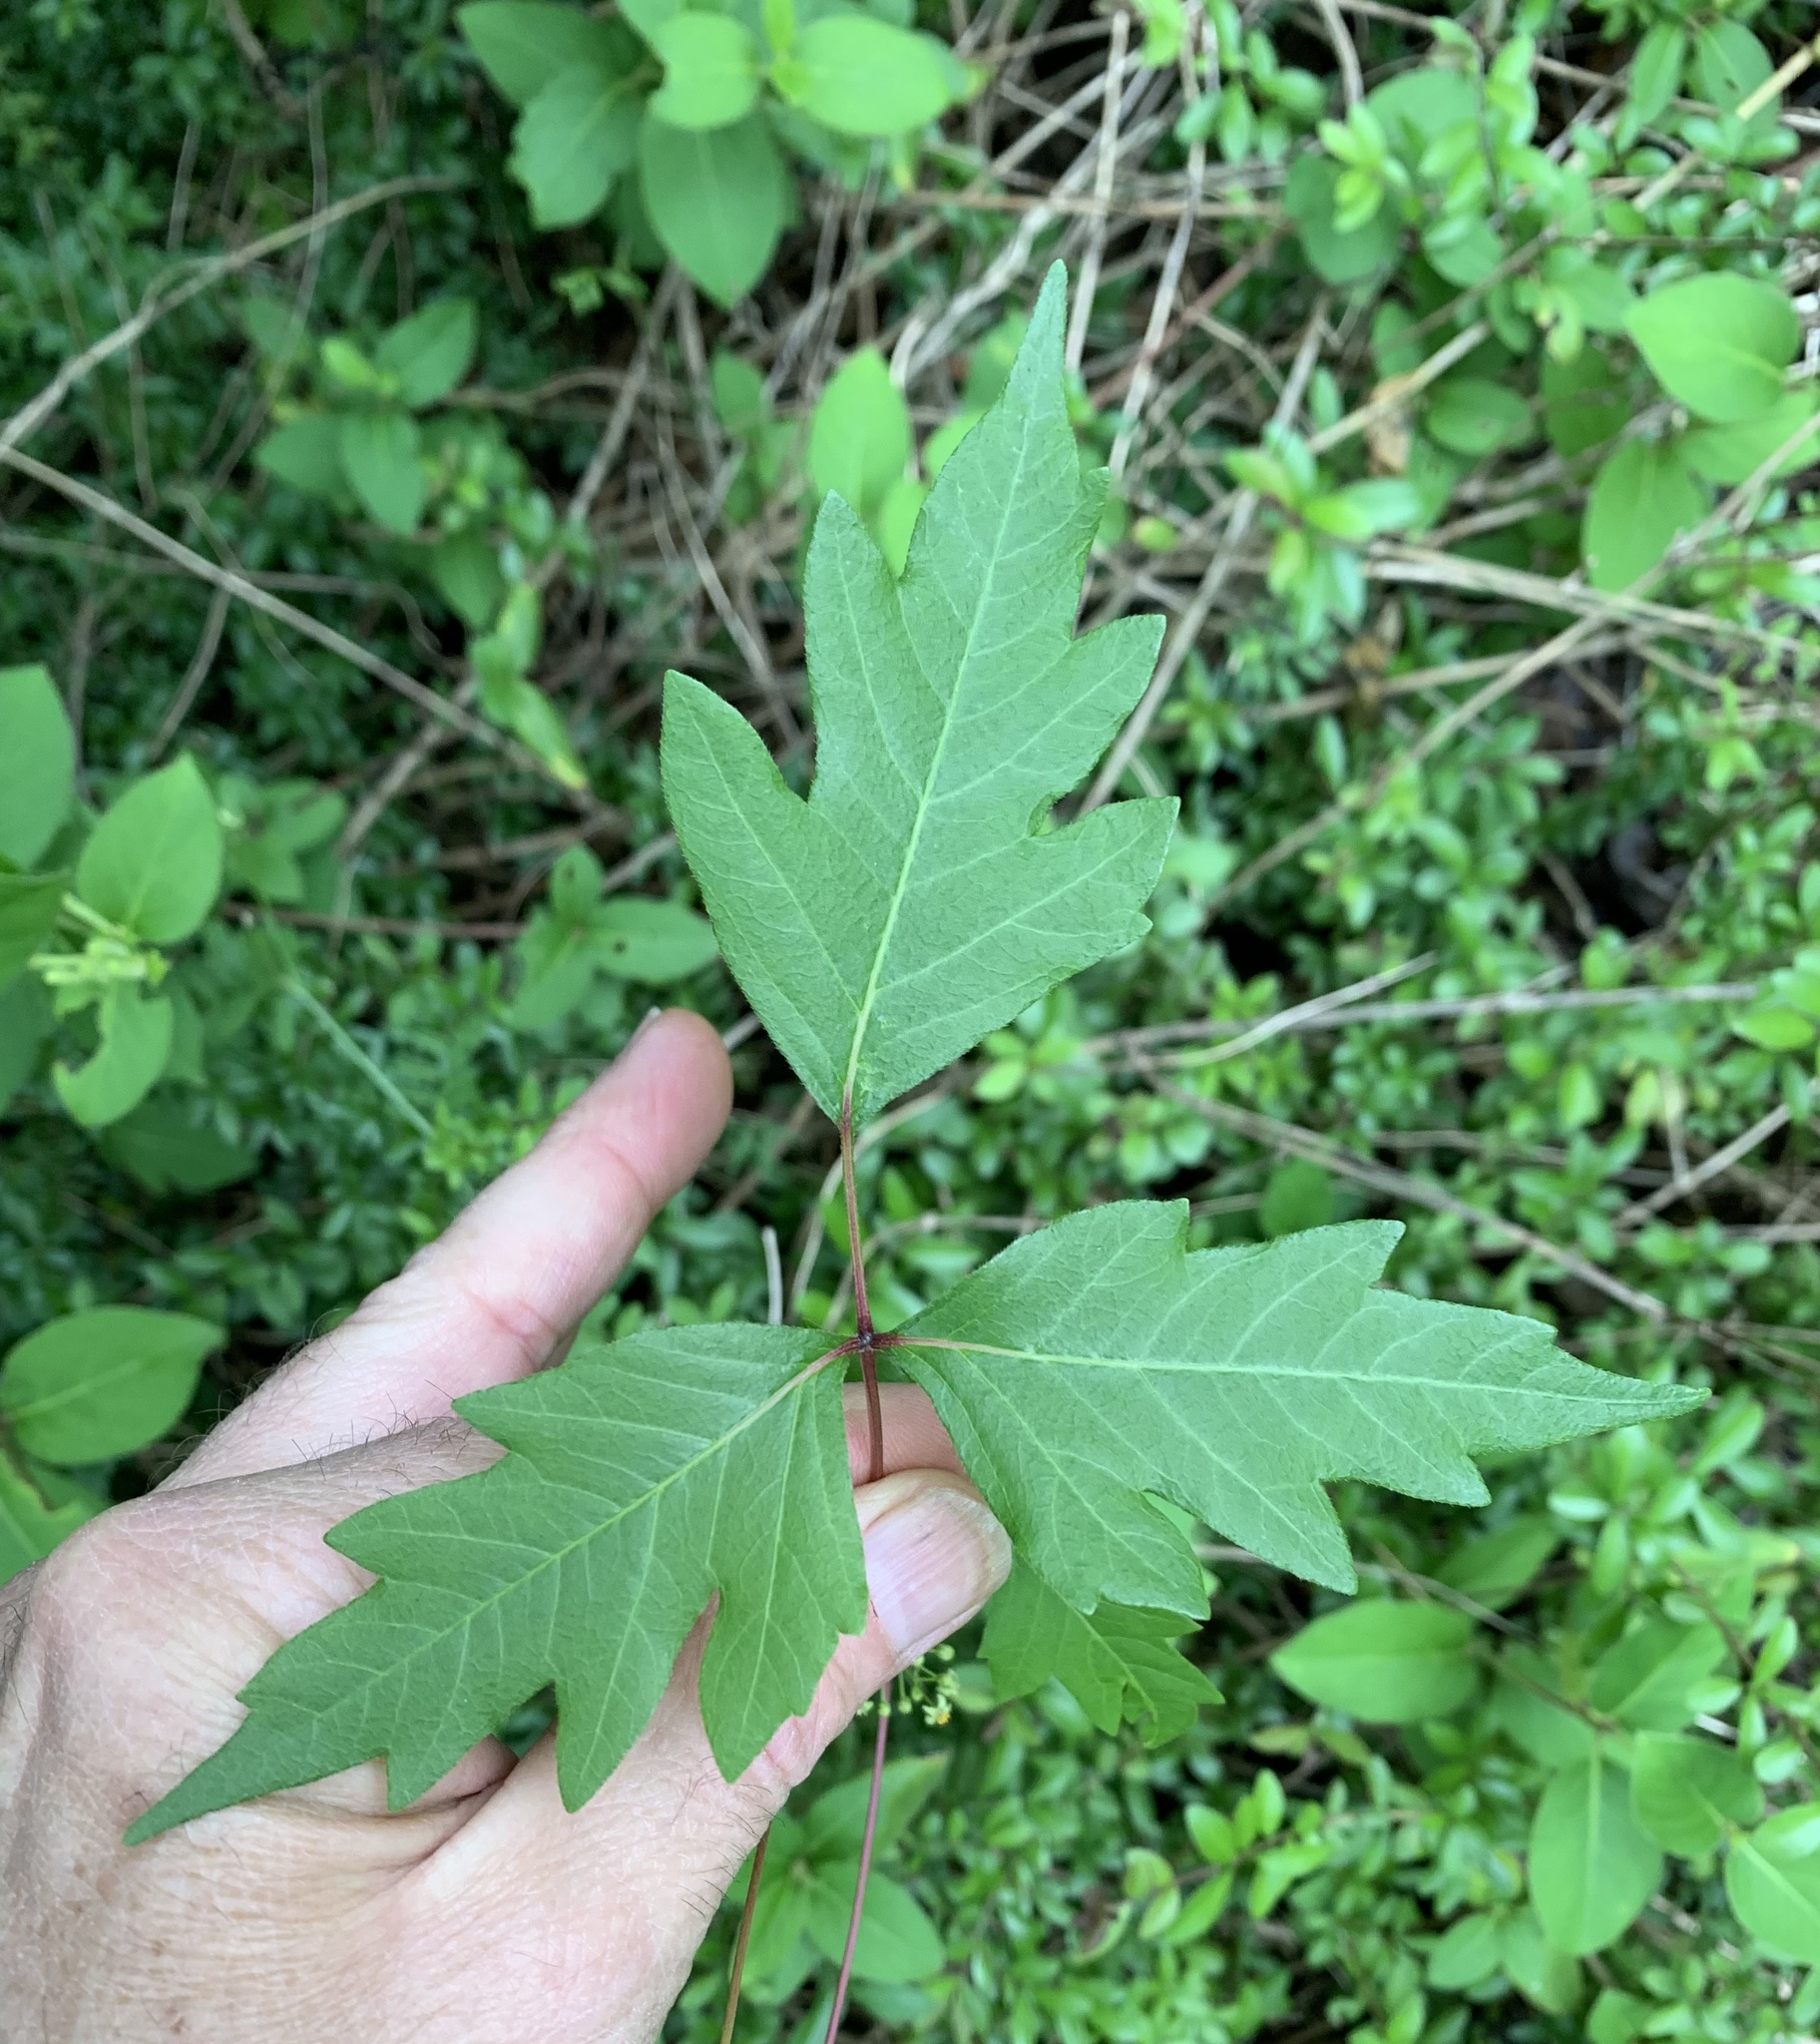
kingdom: Plantae
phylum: Tracheophyta
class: Magnoliopsida
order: Sapindales
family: Anacardiaceae
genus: Toxicodendron
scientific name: Toxicodendron radicans
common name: Poison ivy
